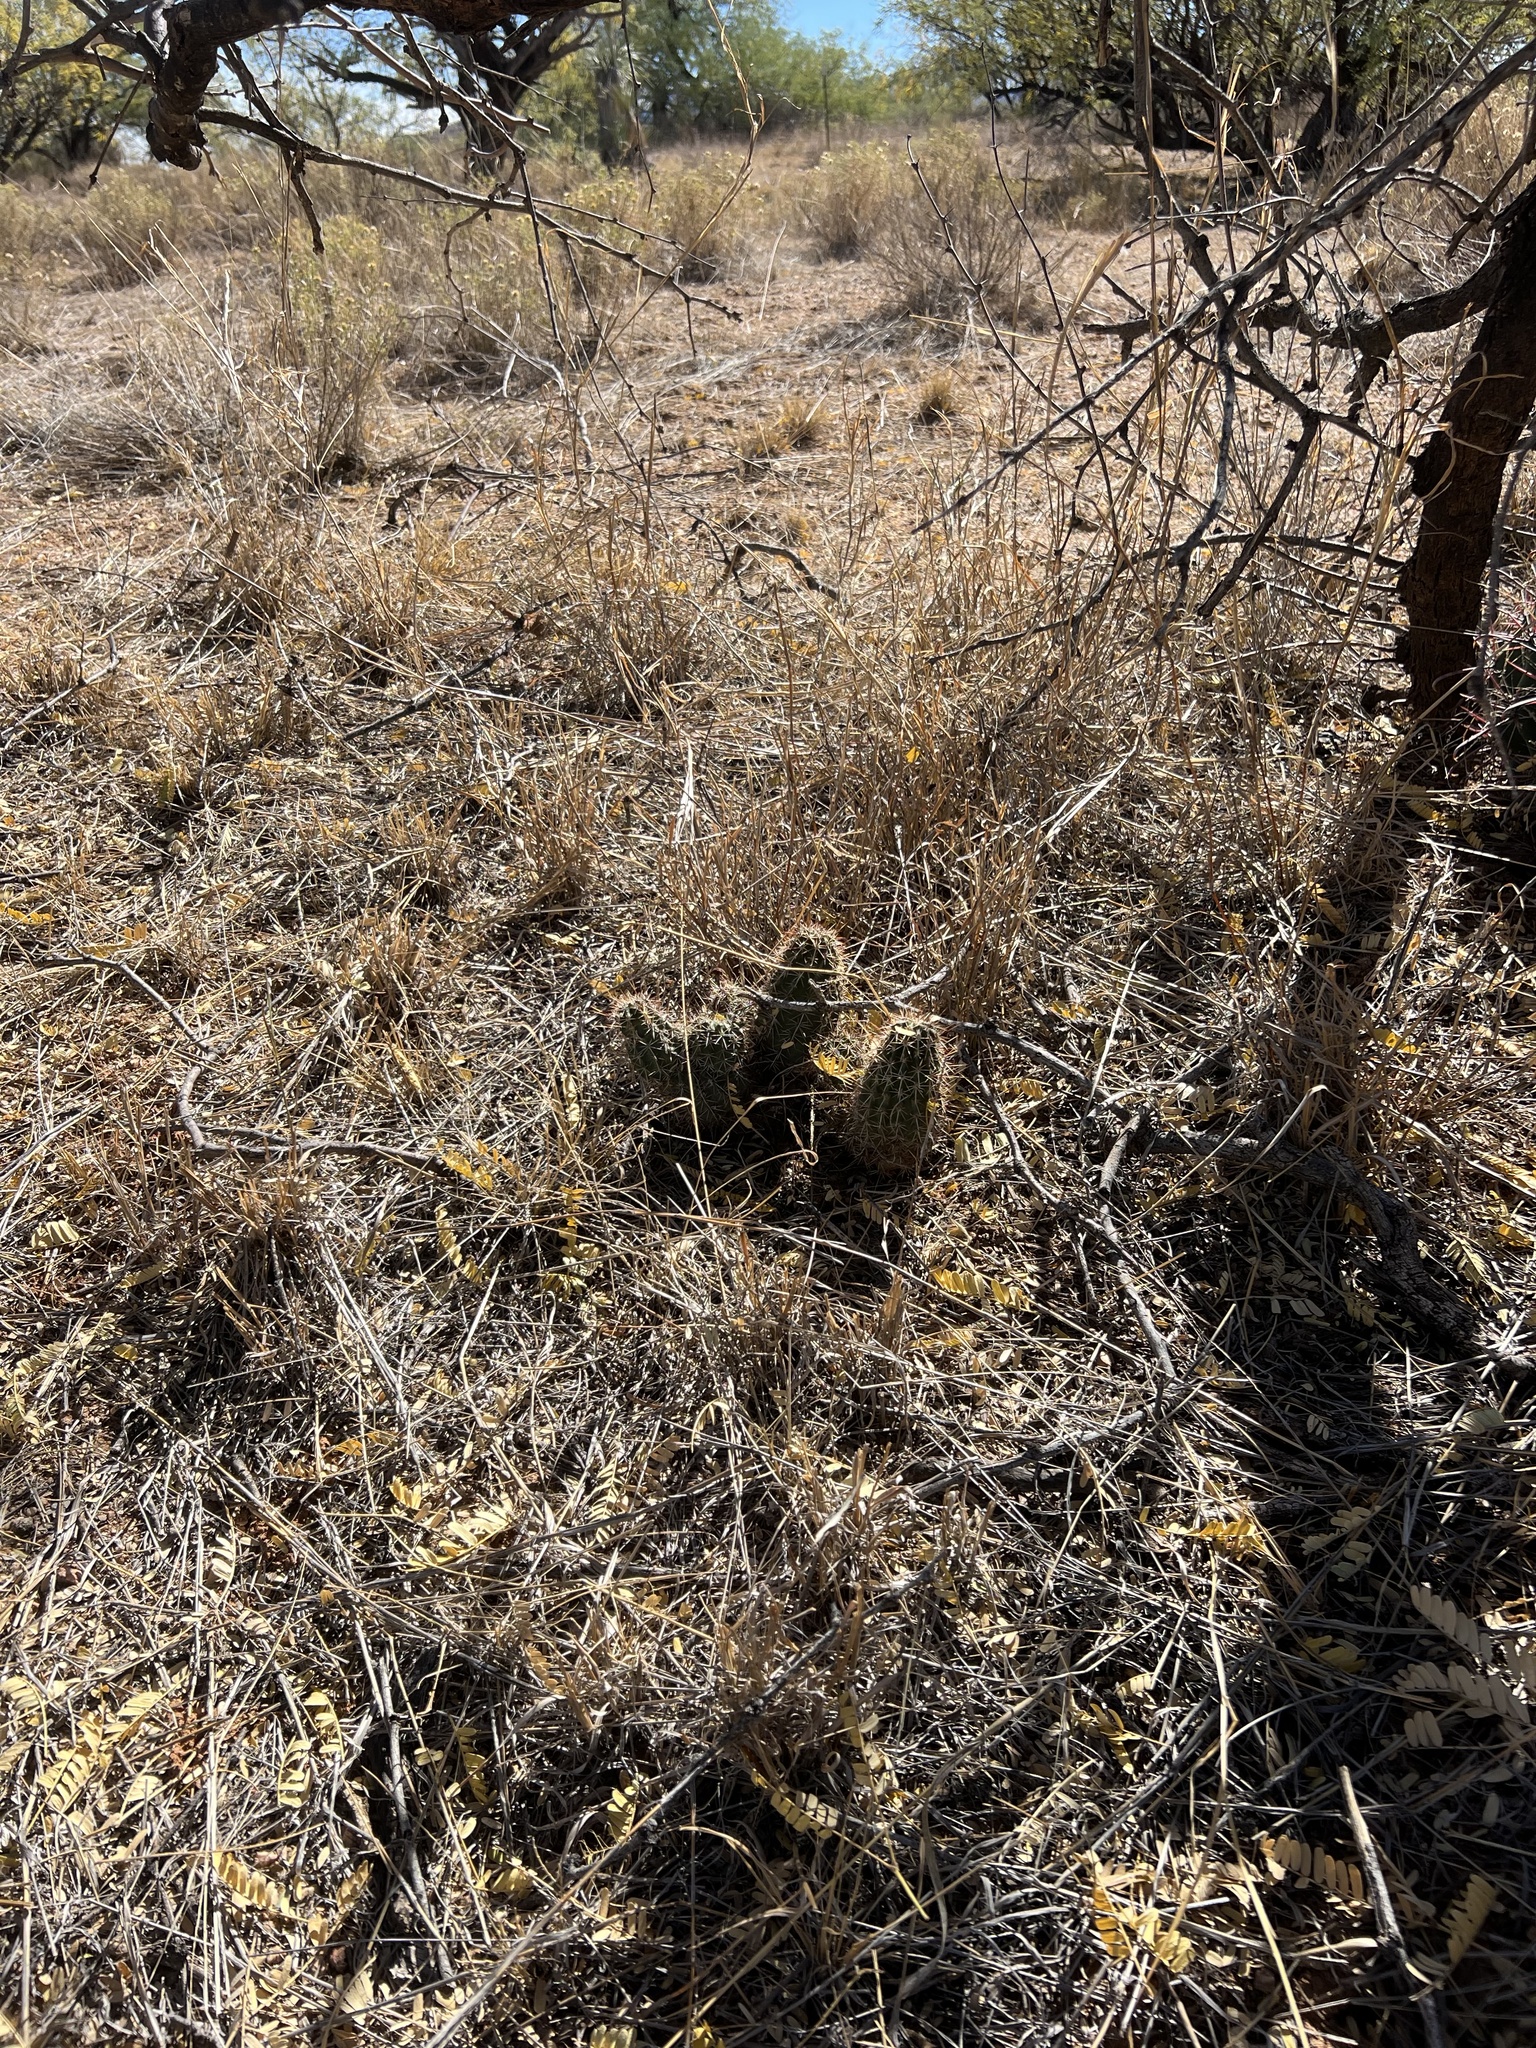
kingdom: Plantae
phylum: Tracheophyta
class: Magnoliopsida
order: Caryophyllales
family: Cactaceae
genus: Echinocereus
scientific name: Echinocereus fasciculatus
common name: Bundle hedgehog
